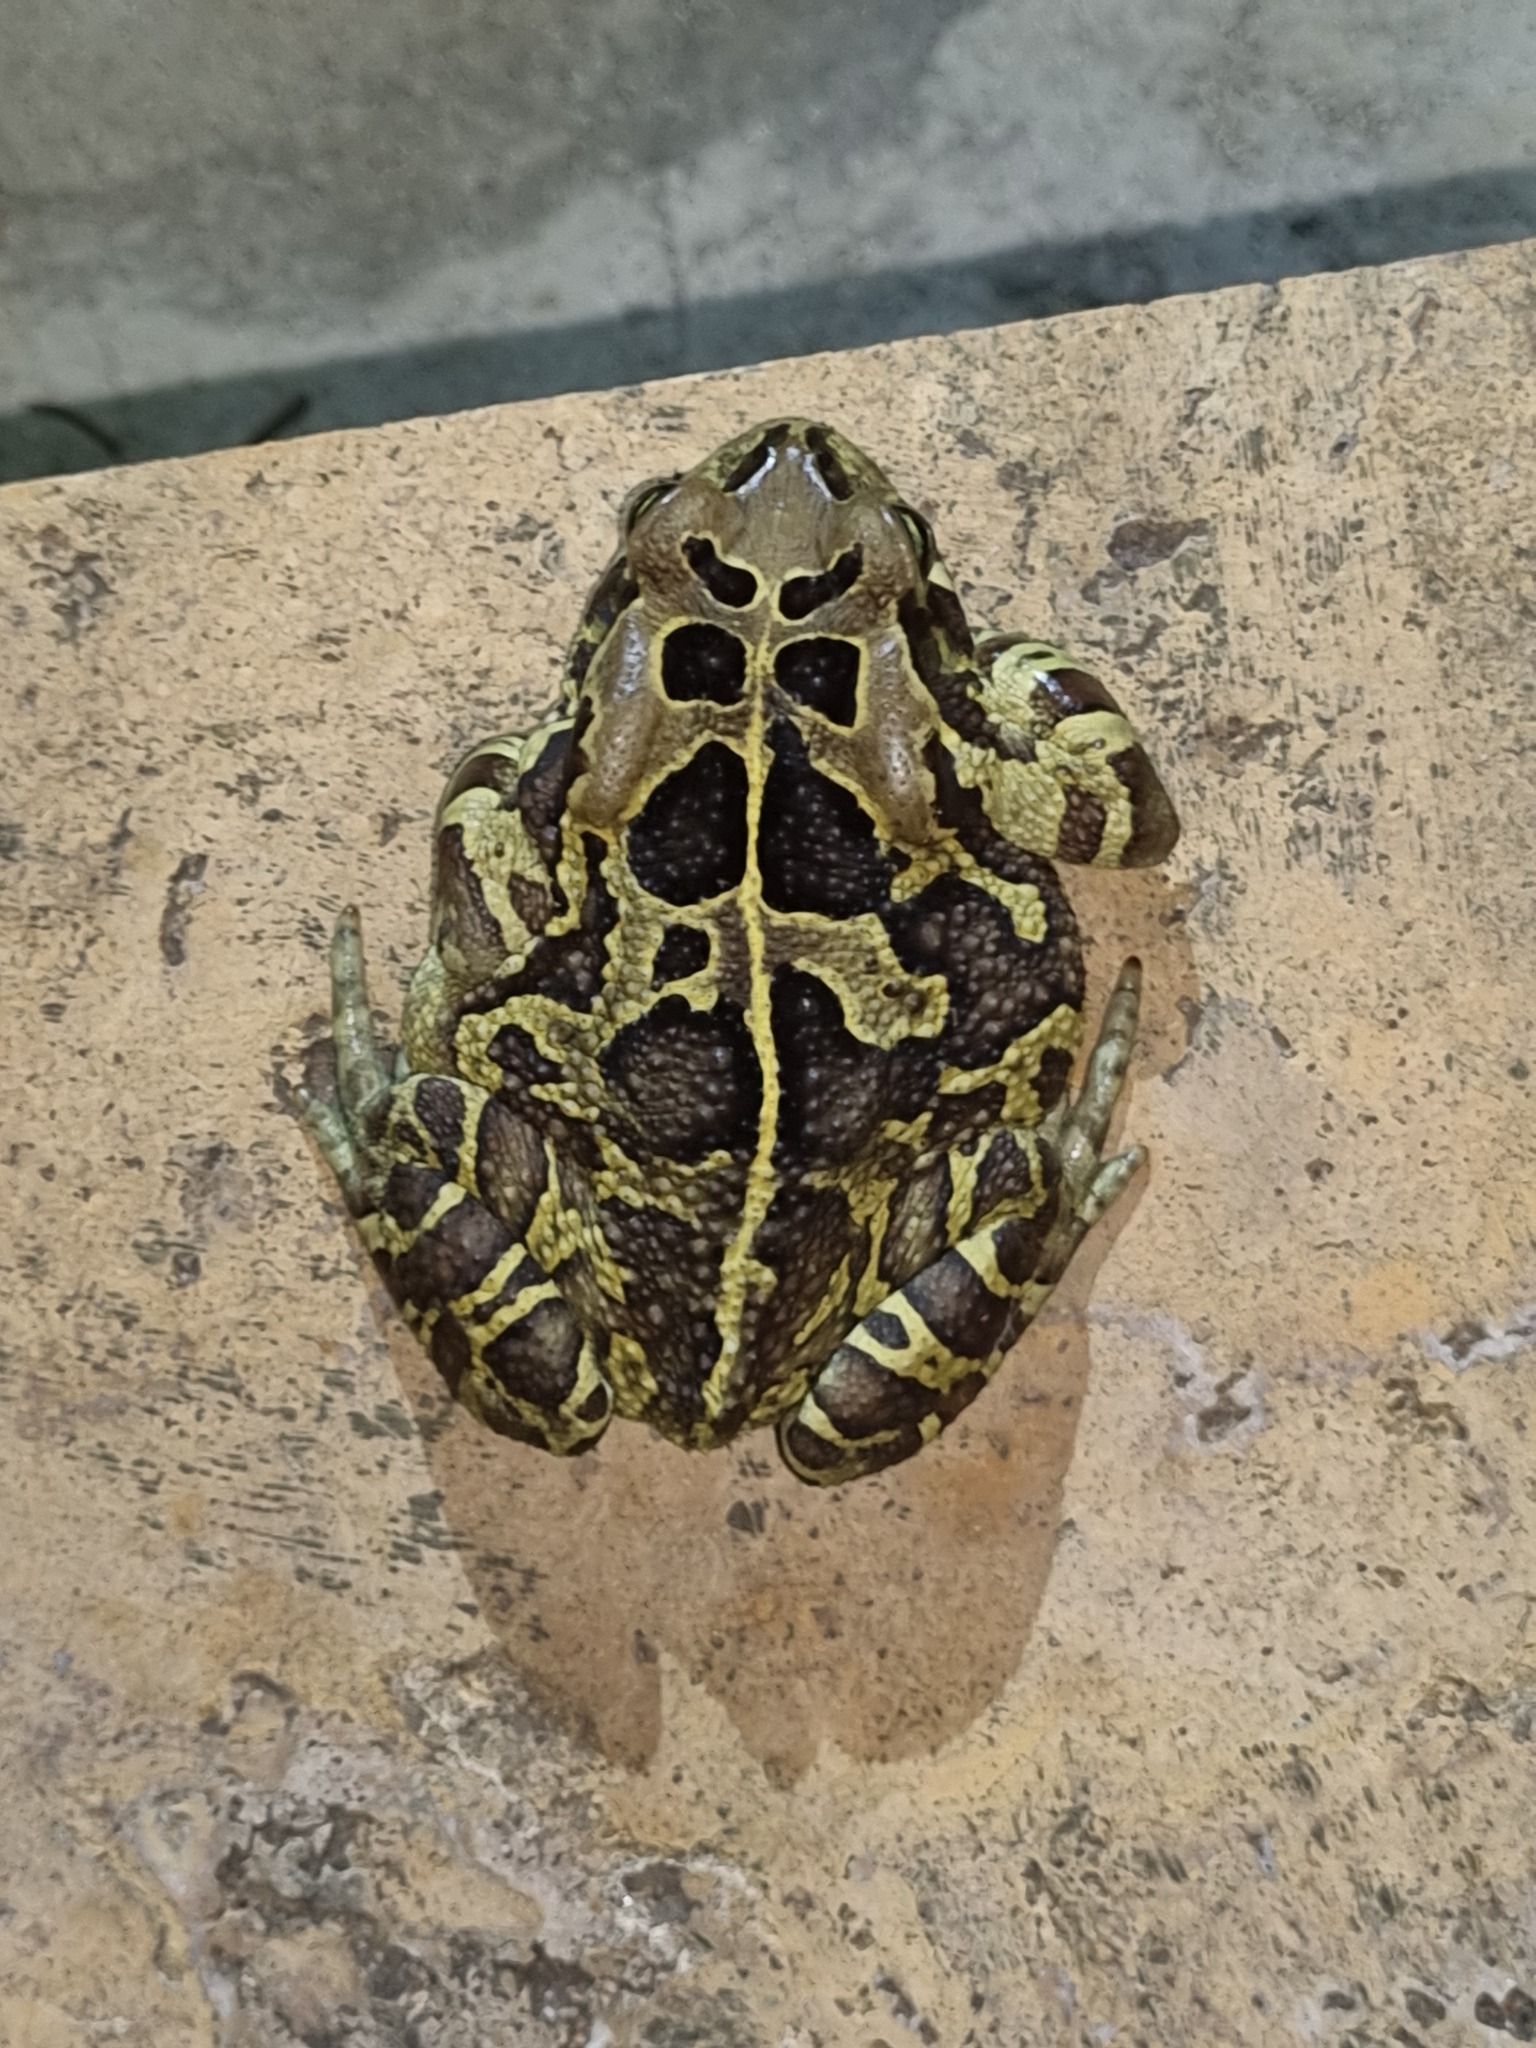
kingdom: Animalia
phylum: Chordata
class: Amphibia
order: Anura
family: Bufonidae
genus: Sclerophrys
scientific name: Sclerophrys pantherina
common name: Panther toad
